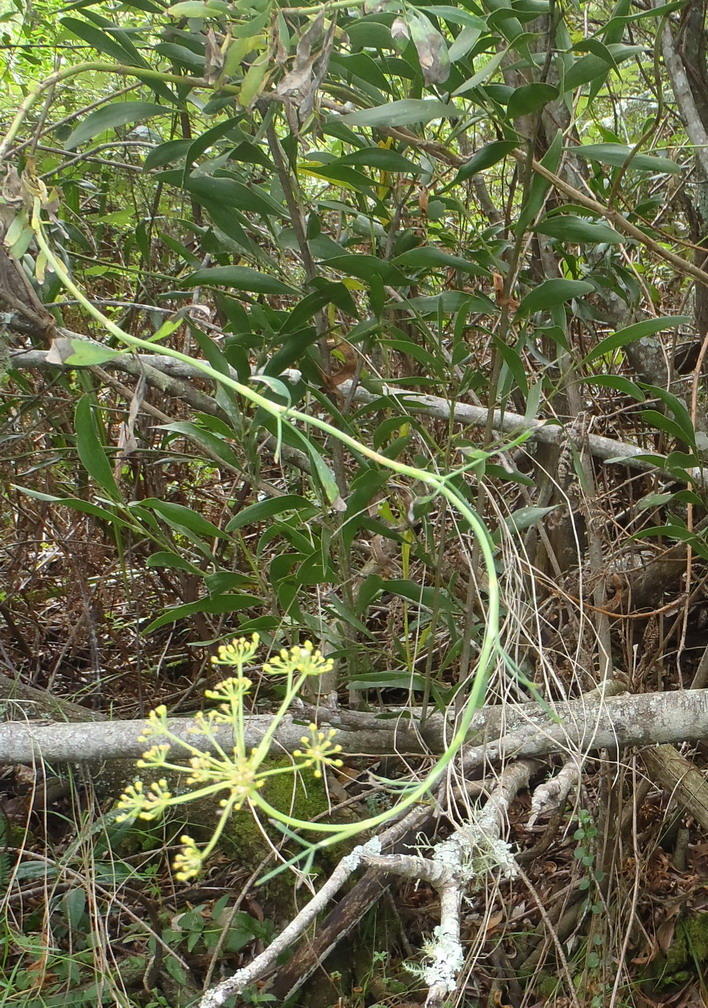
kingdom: Plantae
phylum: Tracheophyta
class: Magnoliopsida
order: Apiales
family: Apiaceae
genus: Notobubon
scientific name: Notobubon laevigatum
